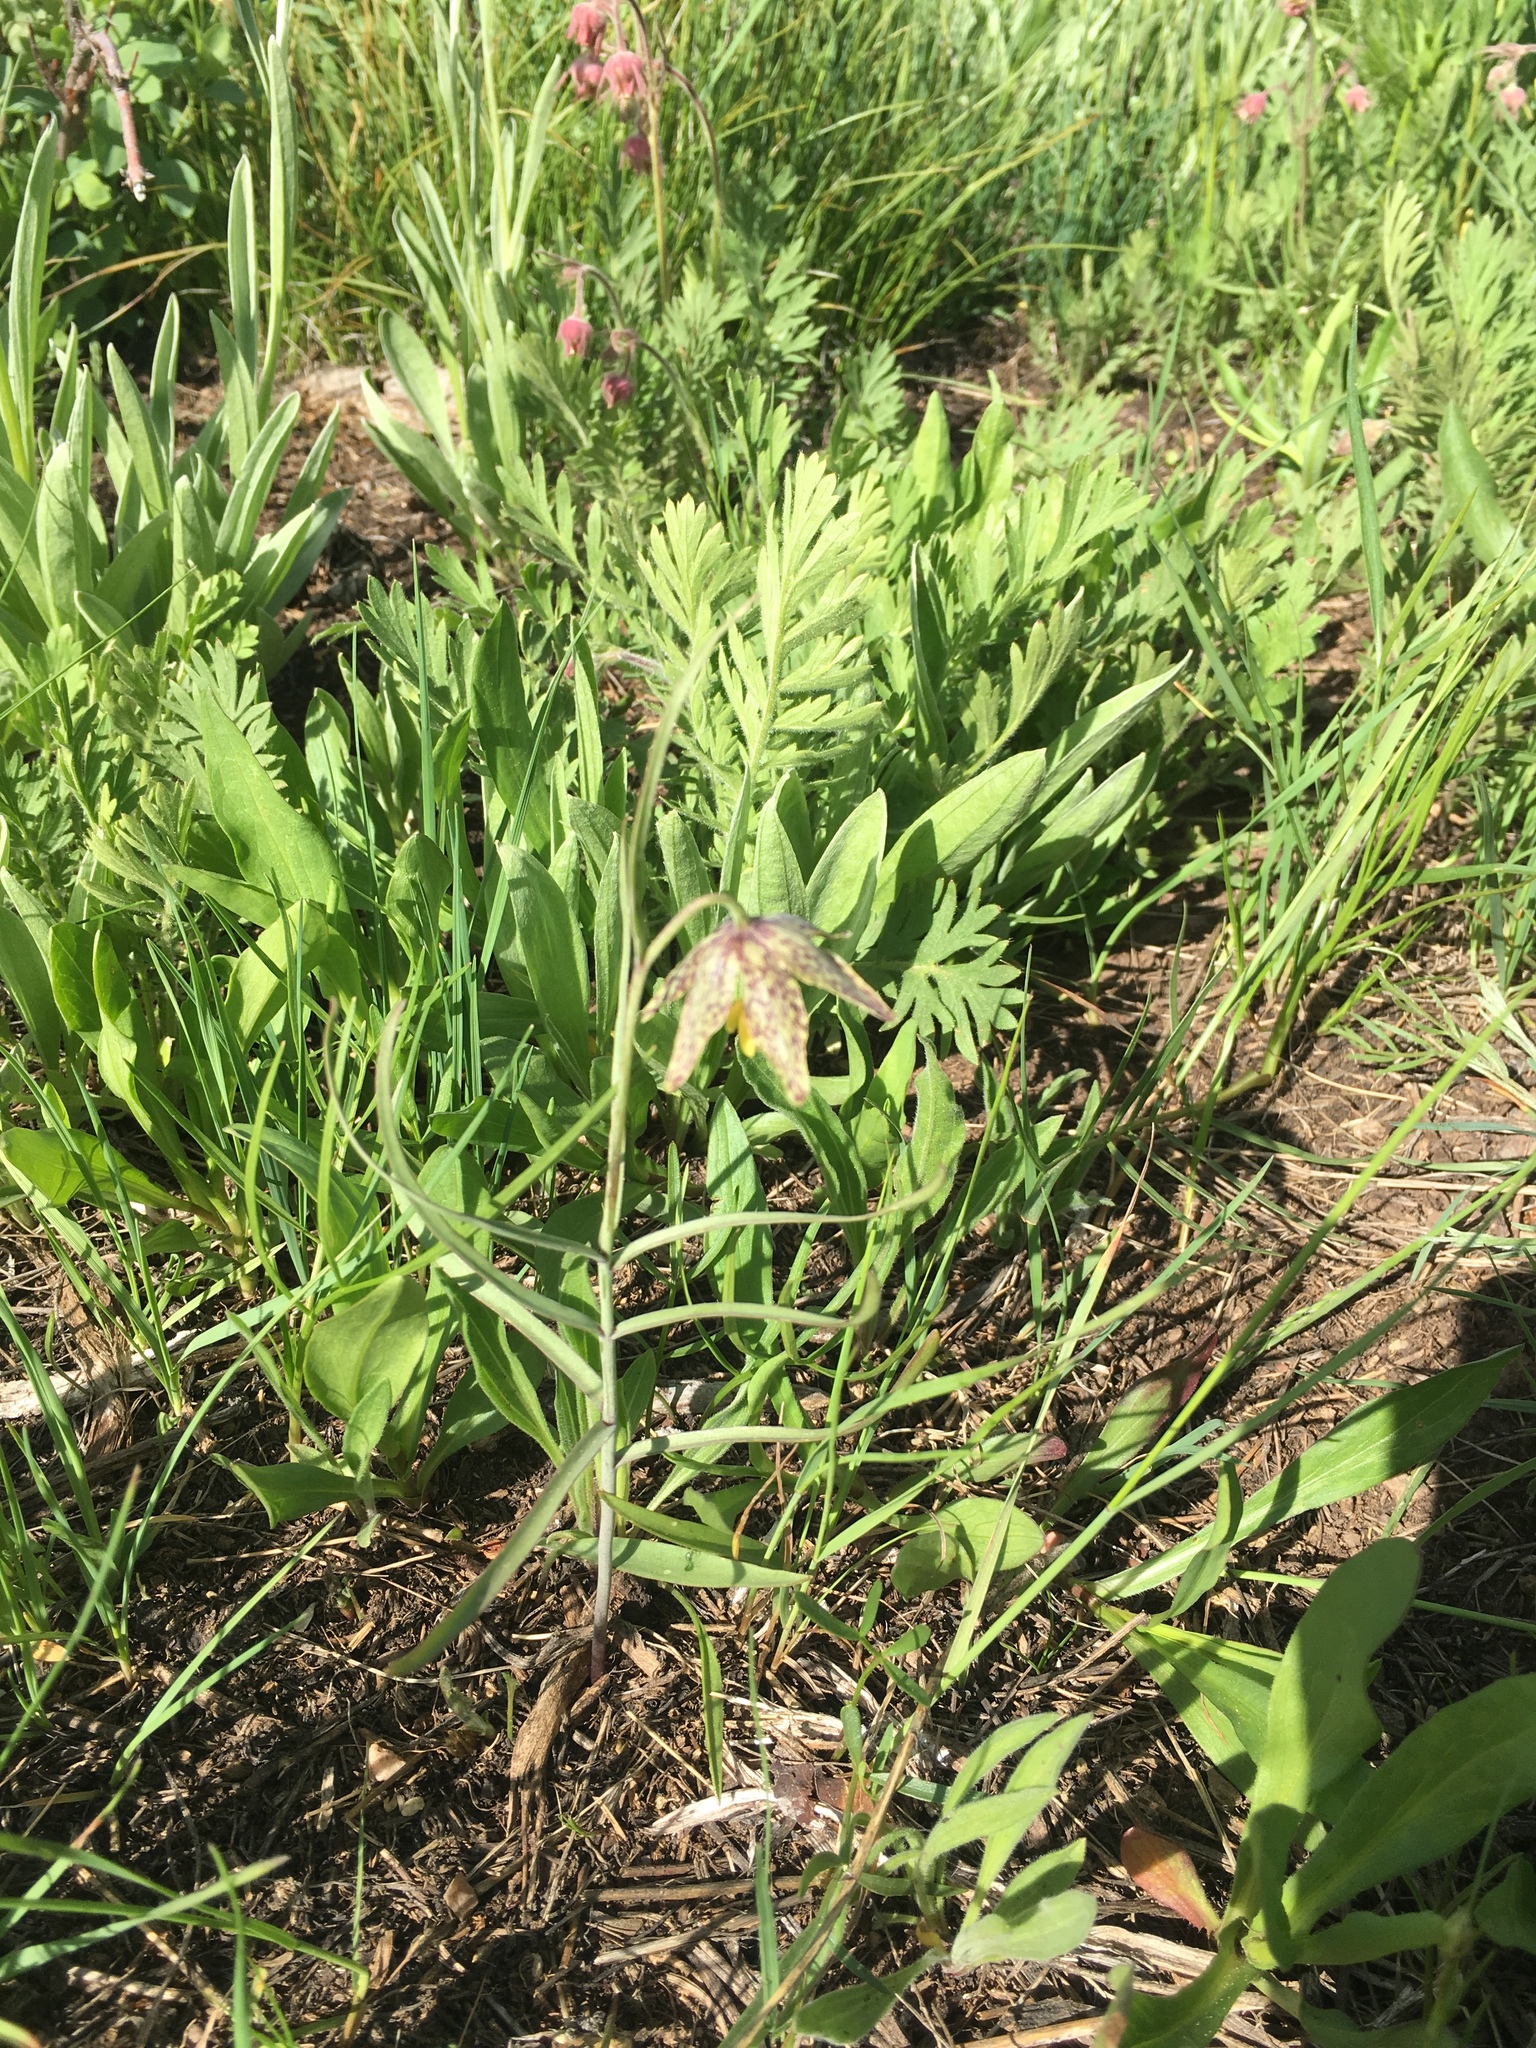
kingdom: Plantae
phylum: Tracheophyta
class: Liliopsida
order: Liliales
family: Liliaceae
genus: Fritillaria
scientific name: Fritillaria atropurpurea
